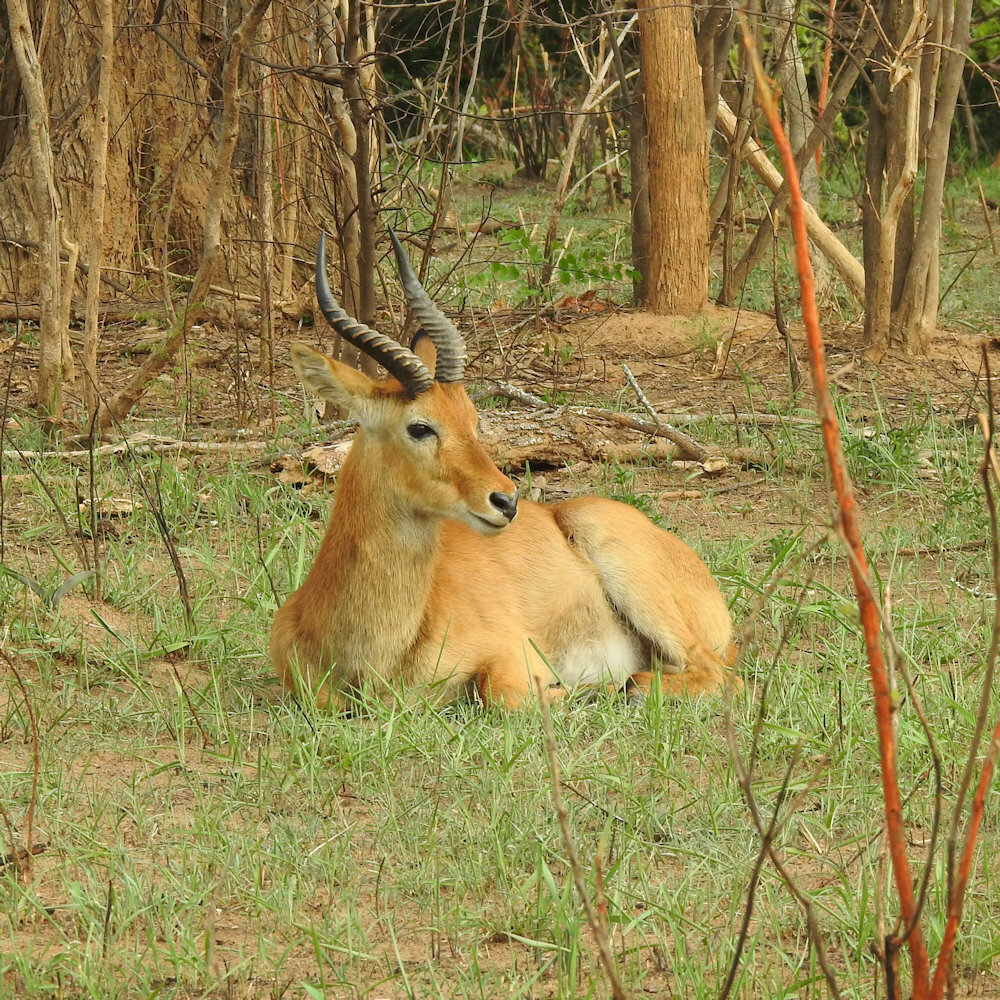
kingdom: Animalia
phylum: Chordata
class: Mammalia
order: Artiodactyla
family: Bovidae
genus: Kobus
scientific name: Kobus vardonii
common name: Puku
